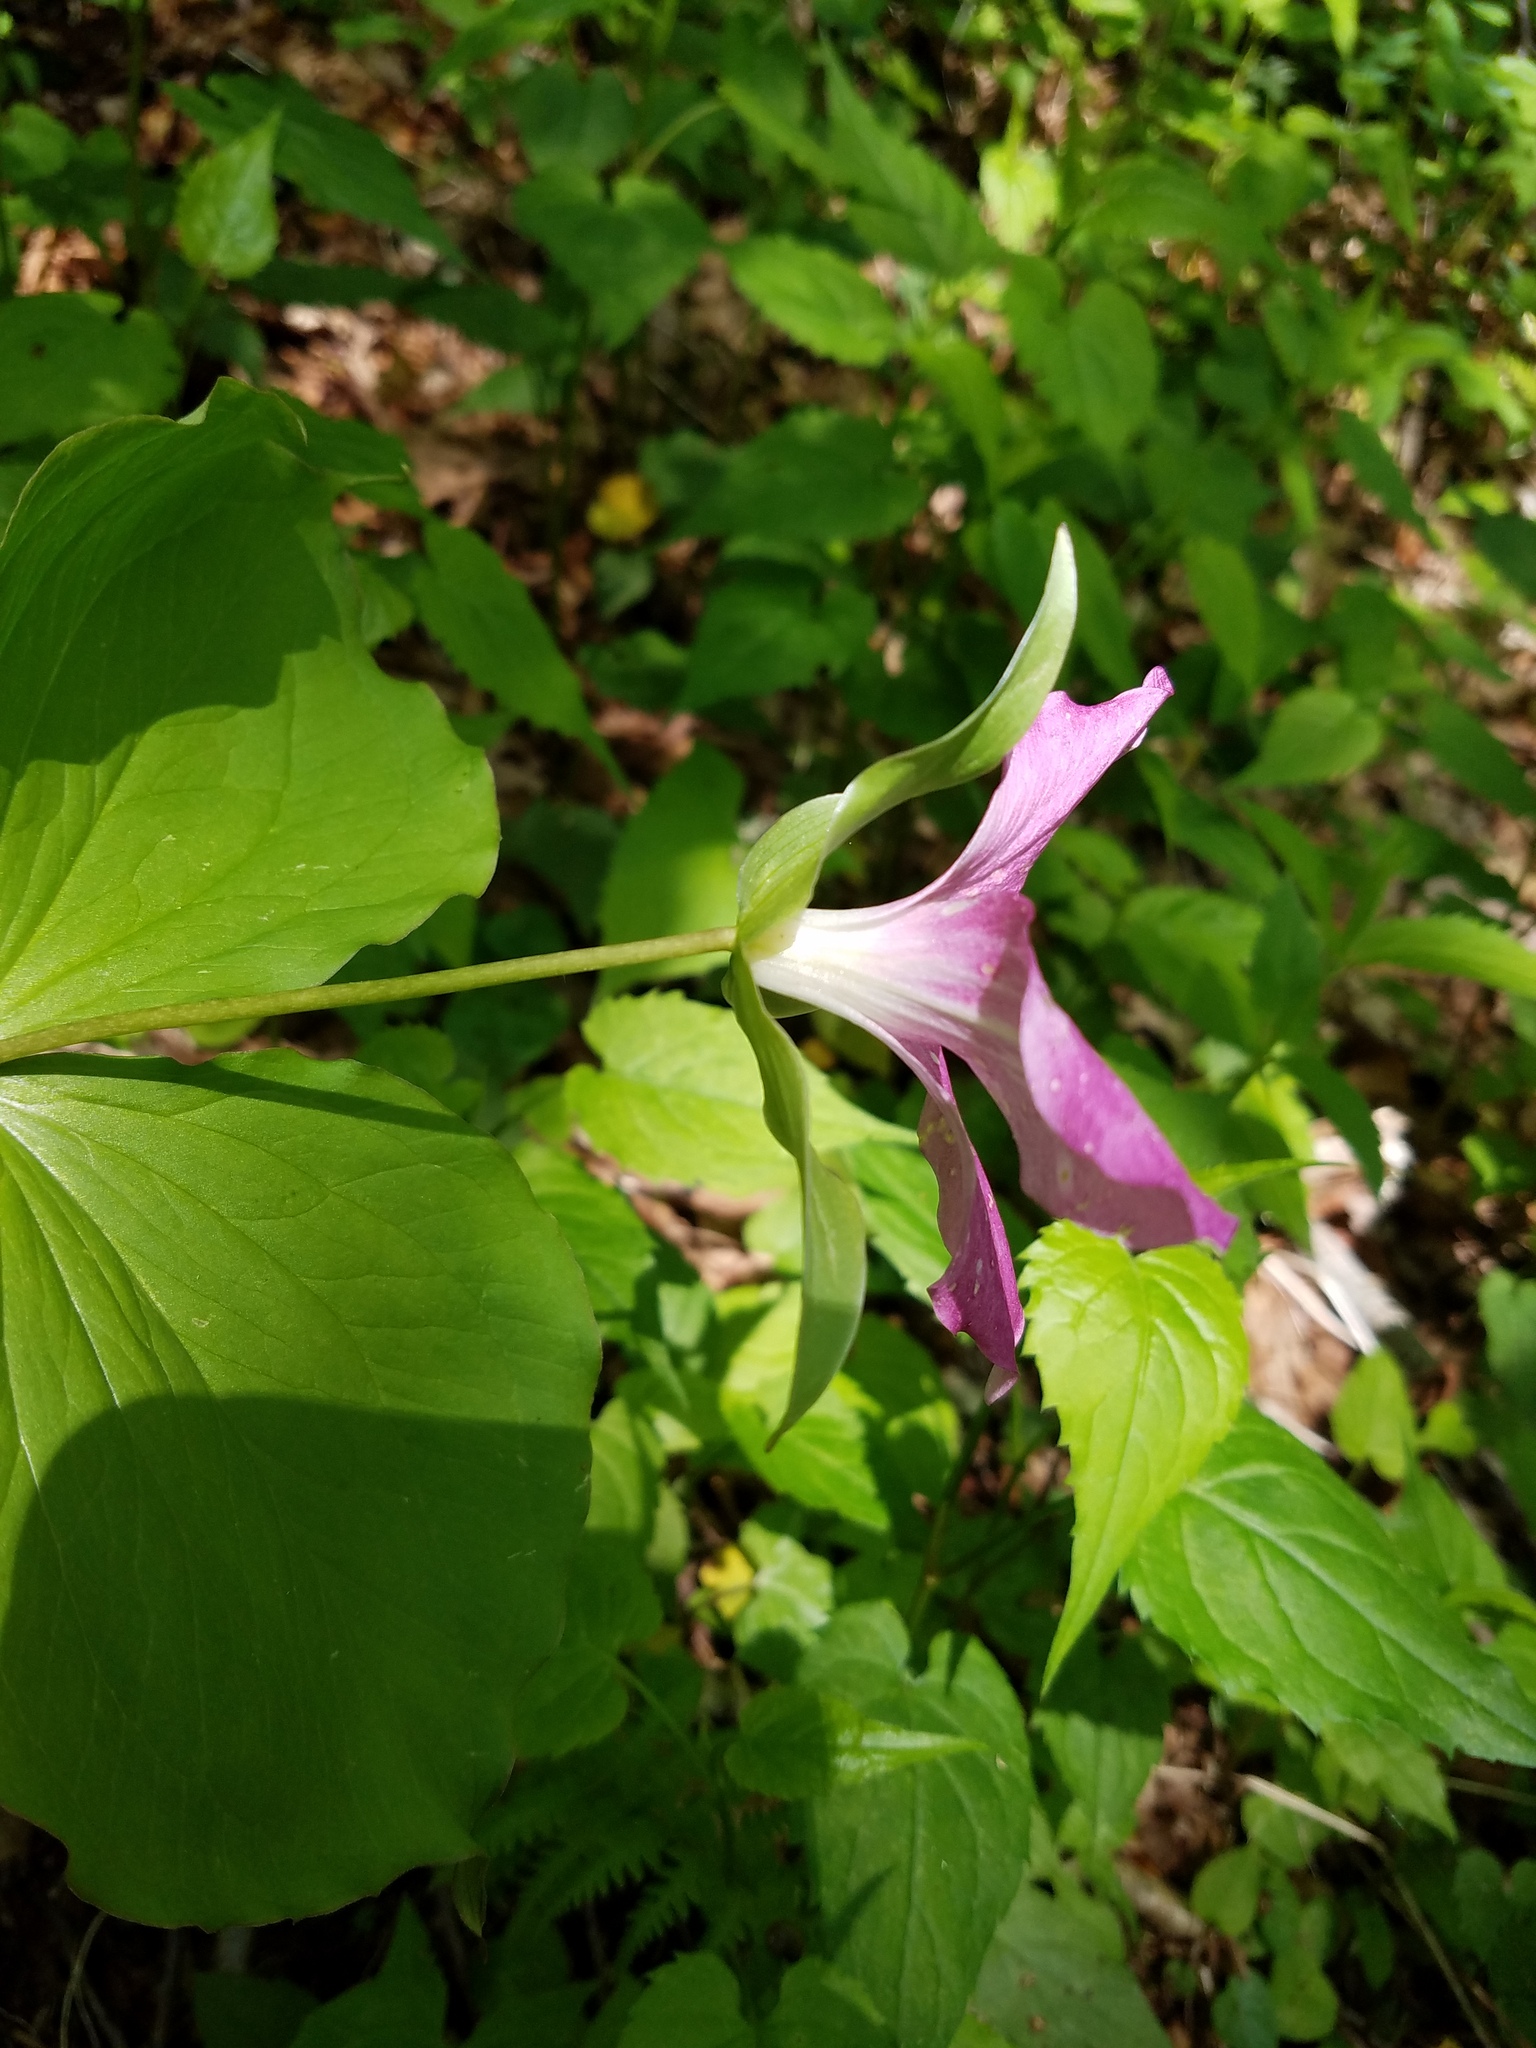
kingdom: Plantae
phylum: Tracheophyta
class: Liliopsida
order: Liliales
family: Melanthiaceae
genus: Trillium
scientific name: Trillium grandiflorum
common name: Great white trillium
